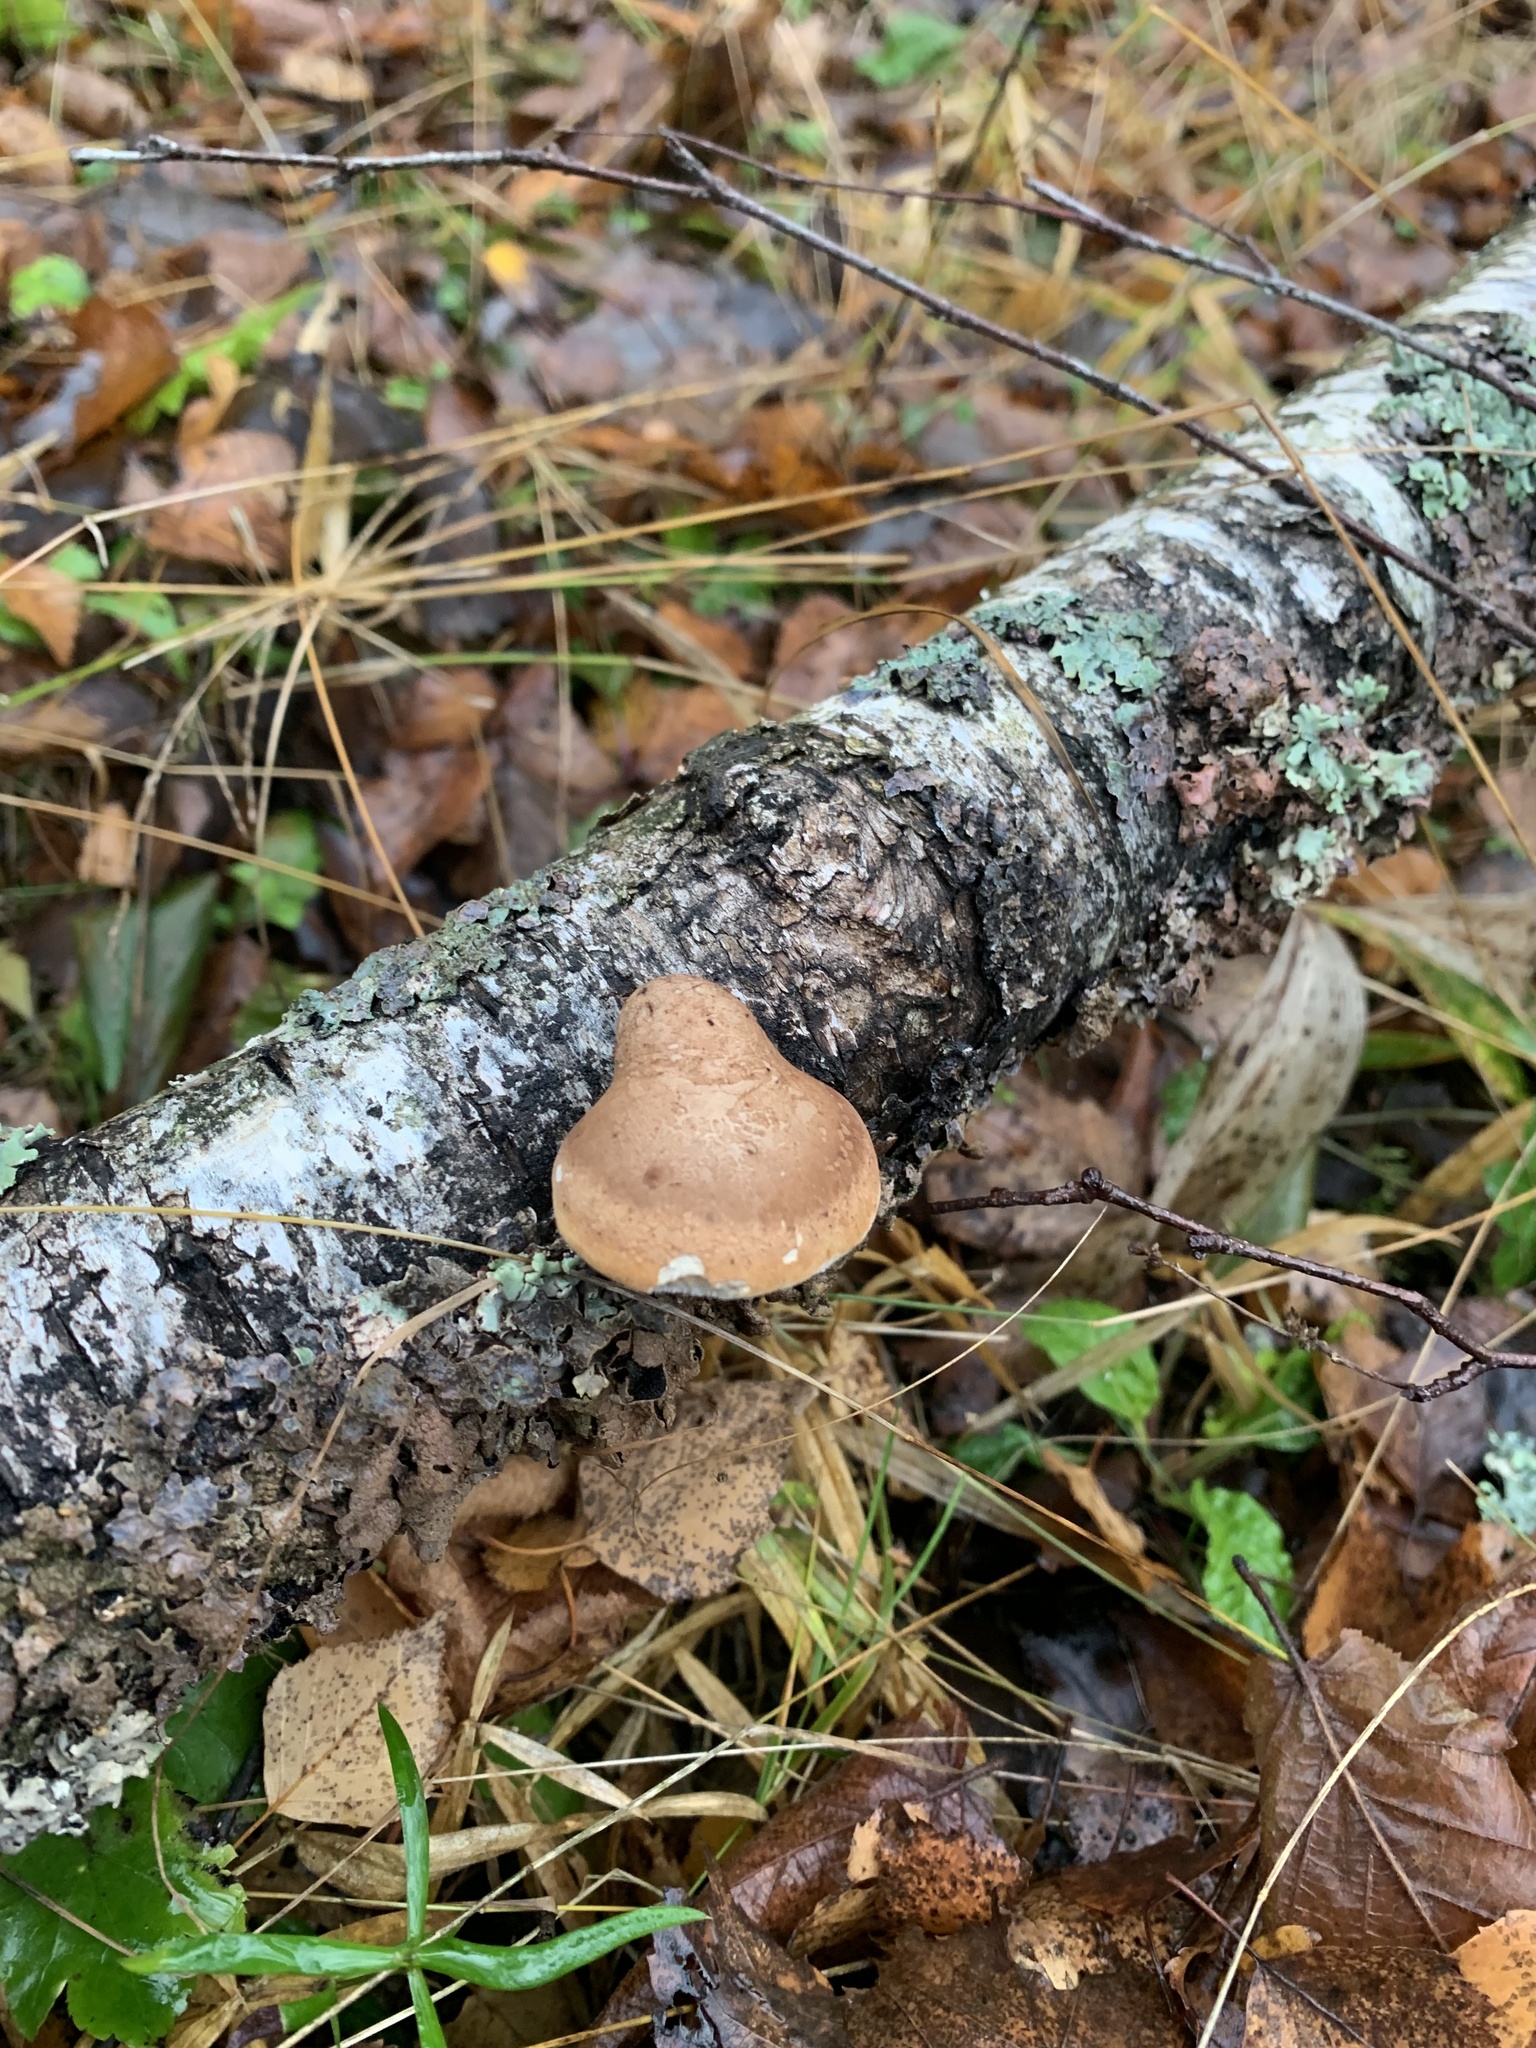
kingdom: Fungi
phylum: Basidiomycota
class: Agaricomycetes
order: Polyporales
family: Fomitopsidaceae
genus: Fomitopsis
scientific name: Fomitopsis betulina
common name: Birch polypore
